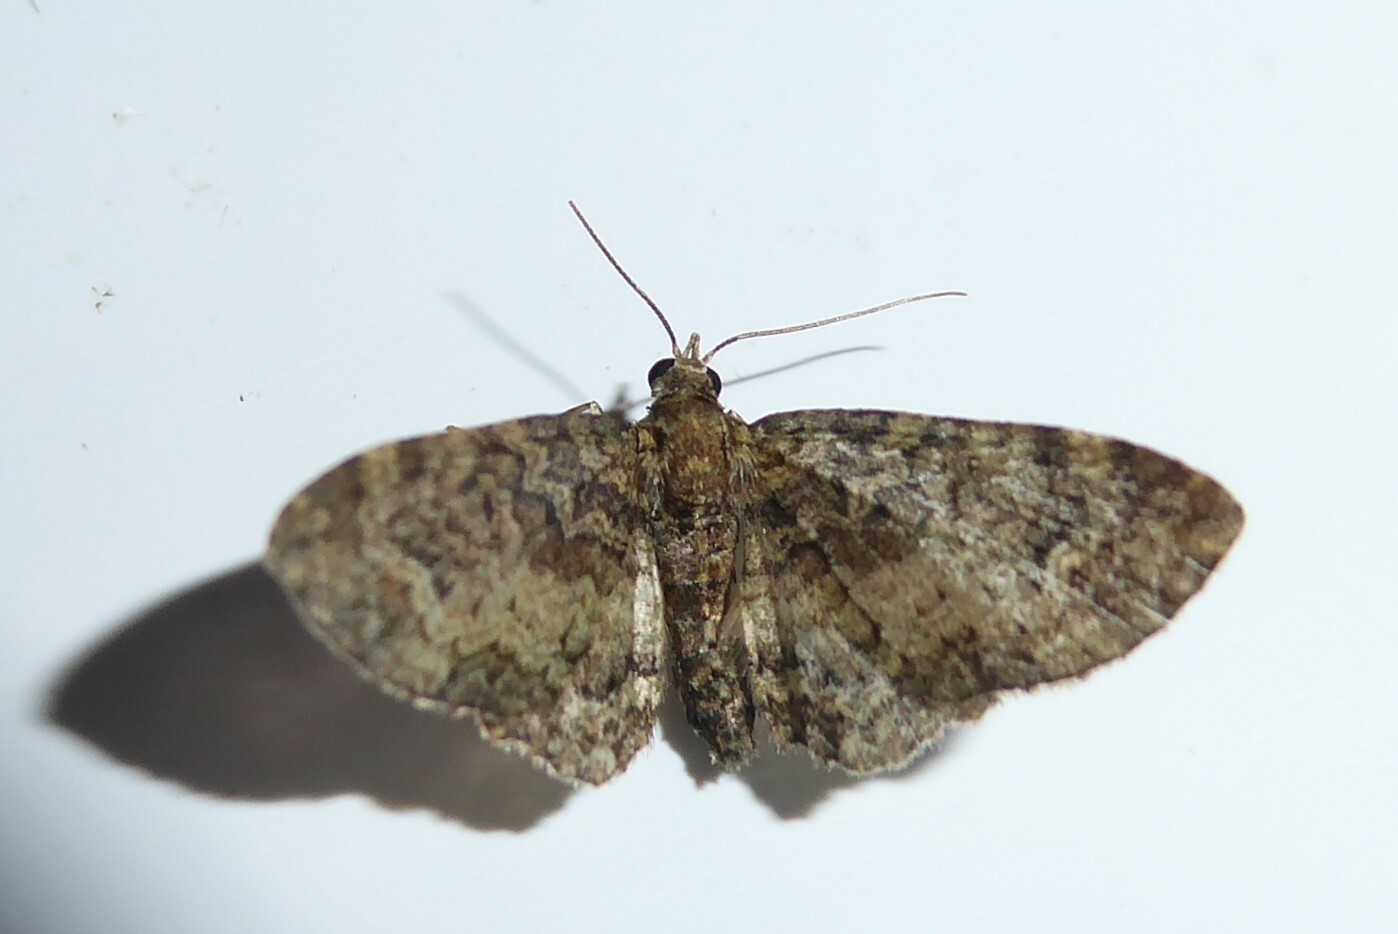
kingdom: Animalia
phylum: Arthropoda
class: Insecta
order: Lepidoptera
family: Geometridae
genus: Pasiphilodes
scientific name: Pasiphilodes testulata
